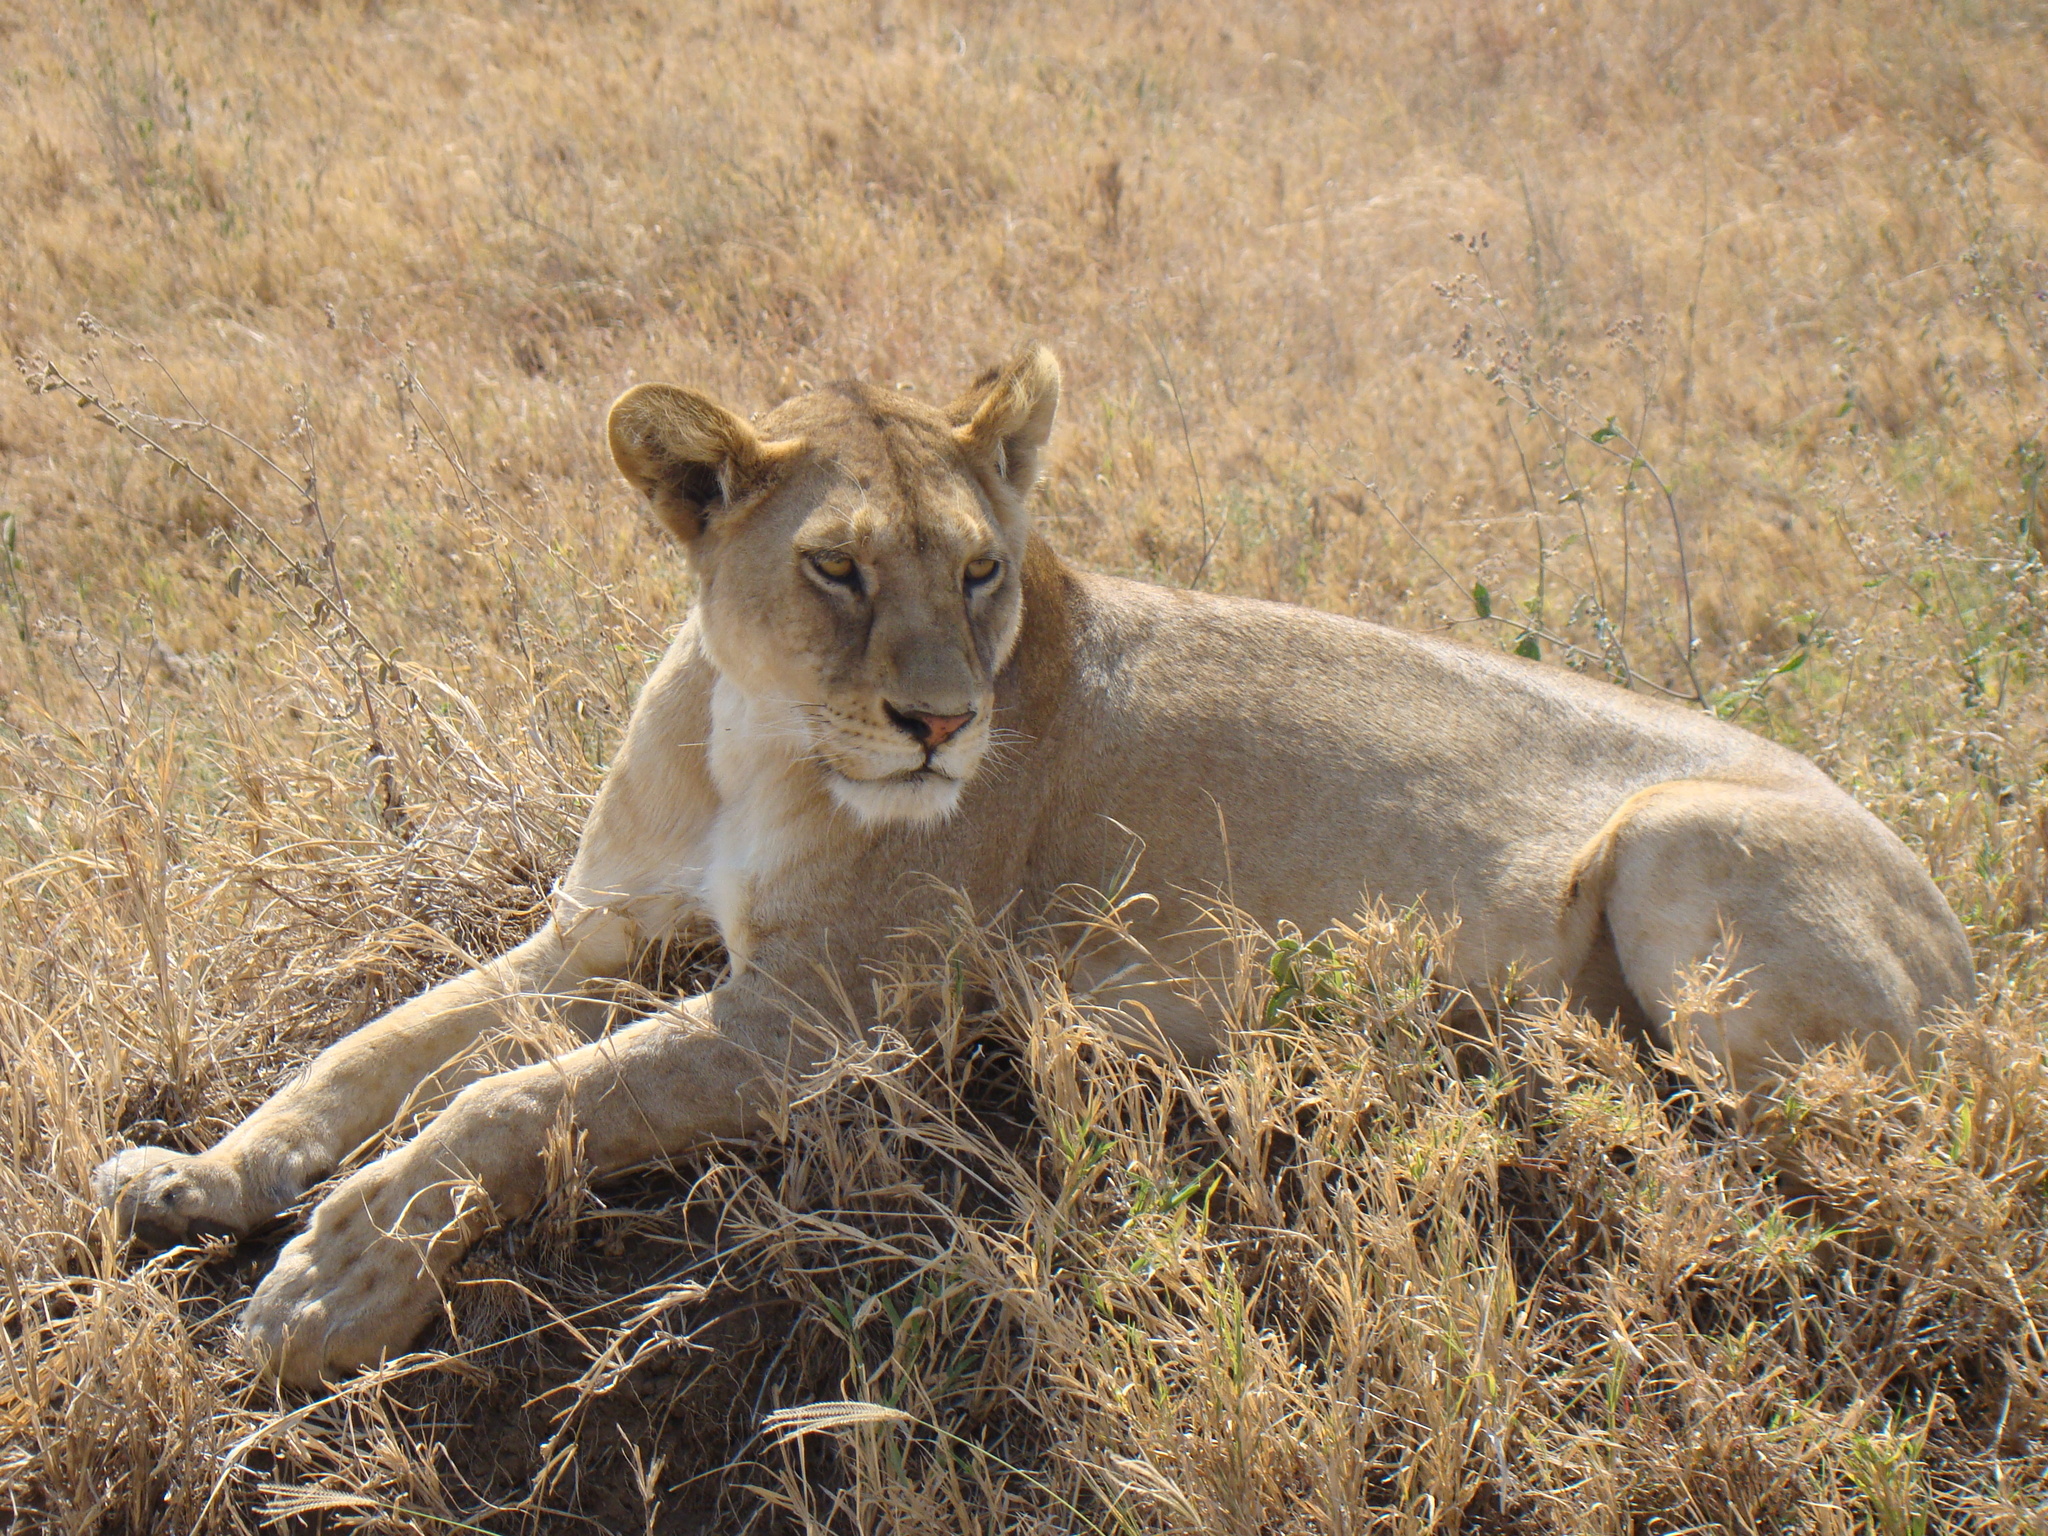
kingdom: Animalia
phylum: Chordata
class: Mammalia
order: Carnivora
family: Felidae
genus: Panthera
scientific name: Panthera leo
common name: Lion
